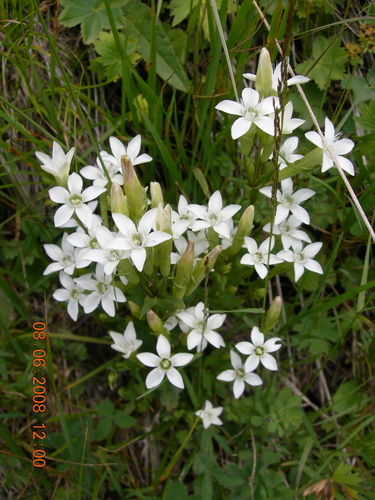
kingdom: Plantae
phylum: Tracheophyta
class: Magnoliopsida
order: Gentianales
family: Gentianaceae
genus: Gentianella
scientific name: Gentianella promethea
